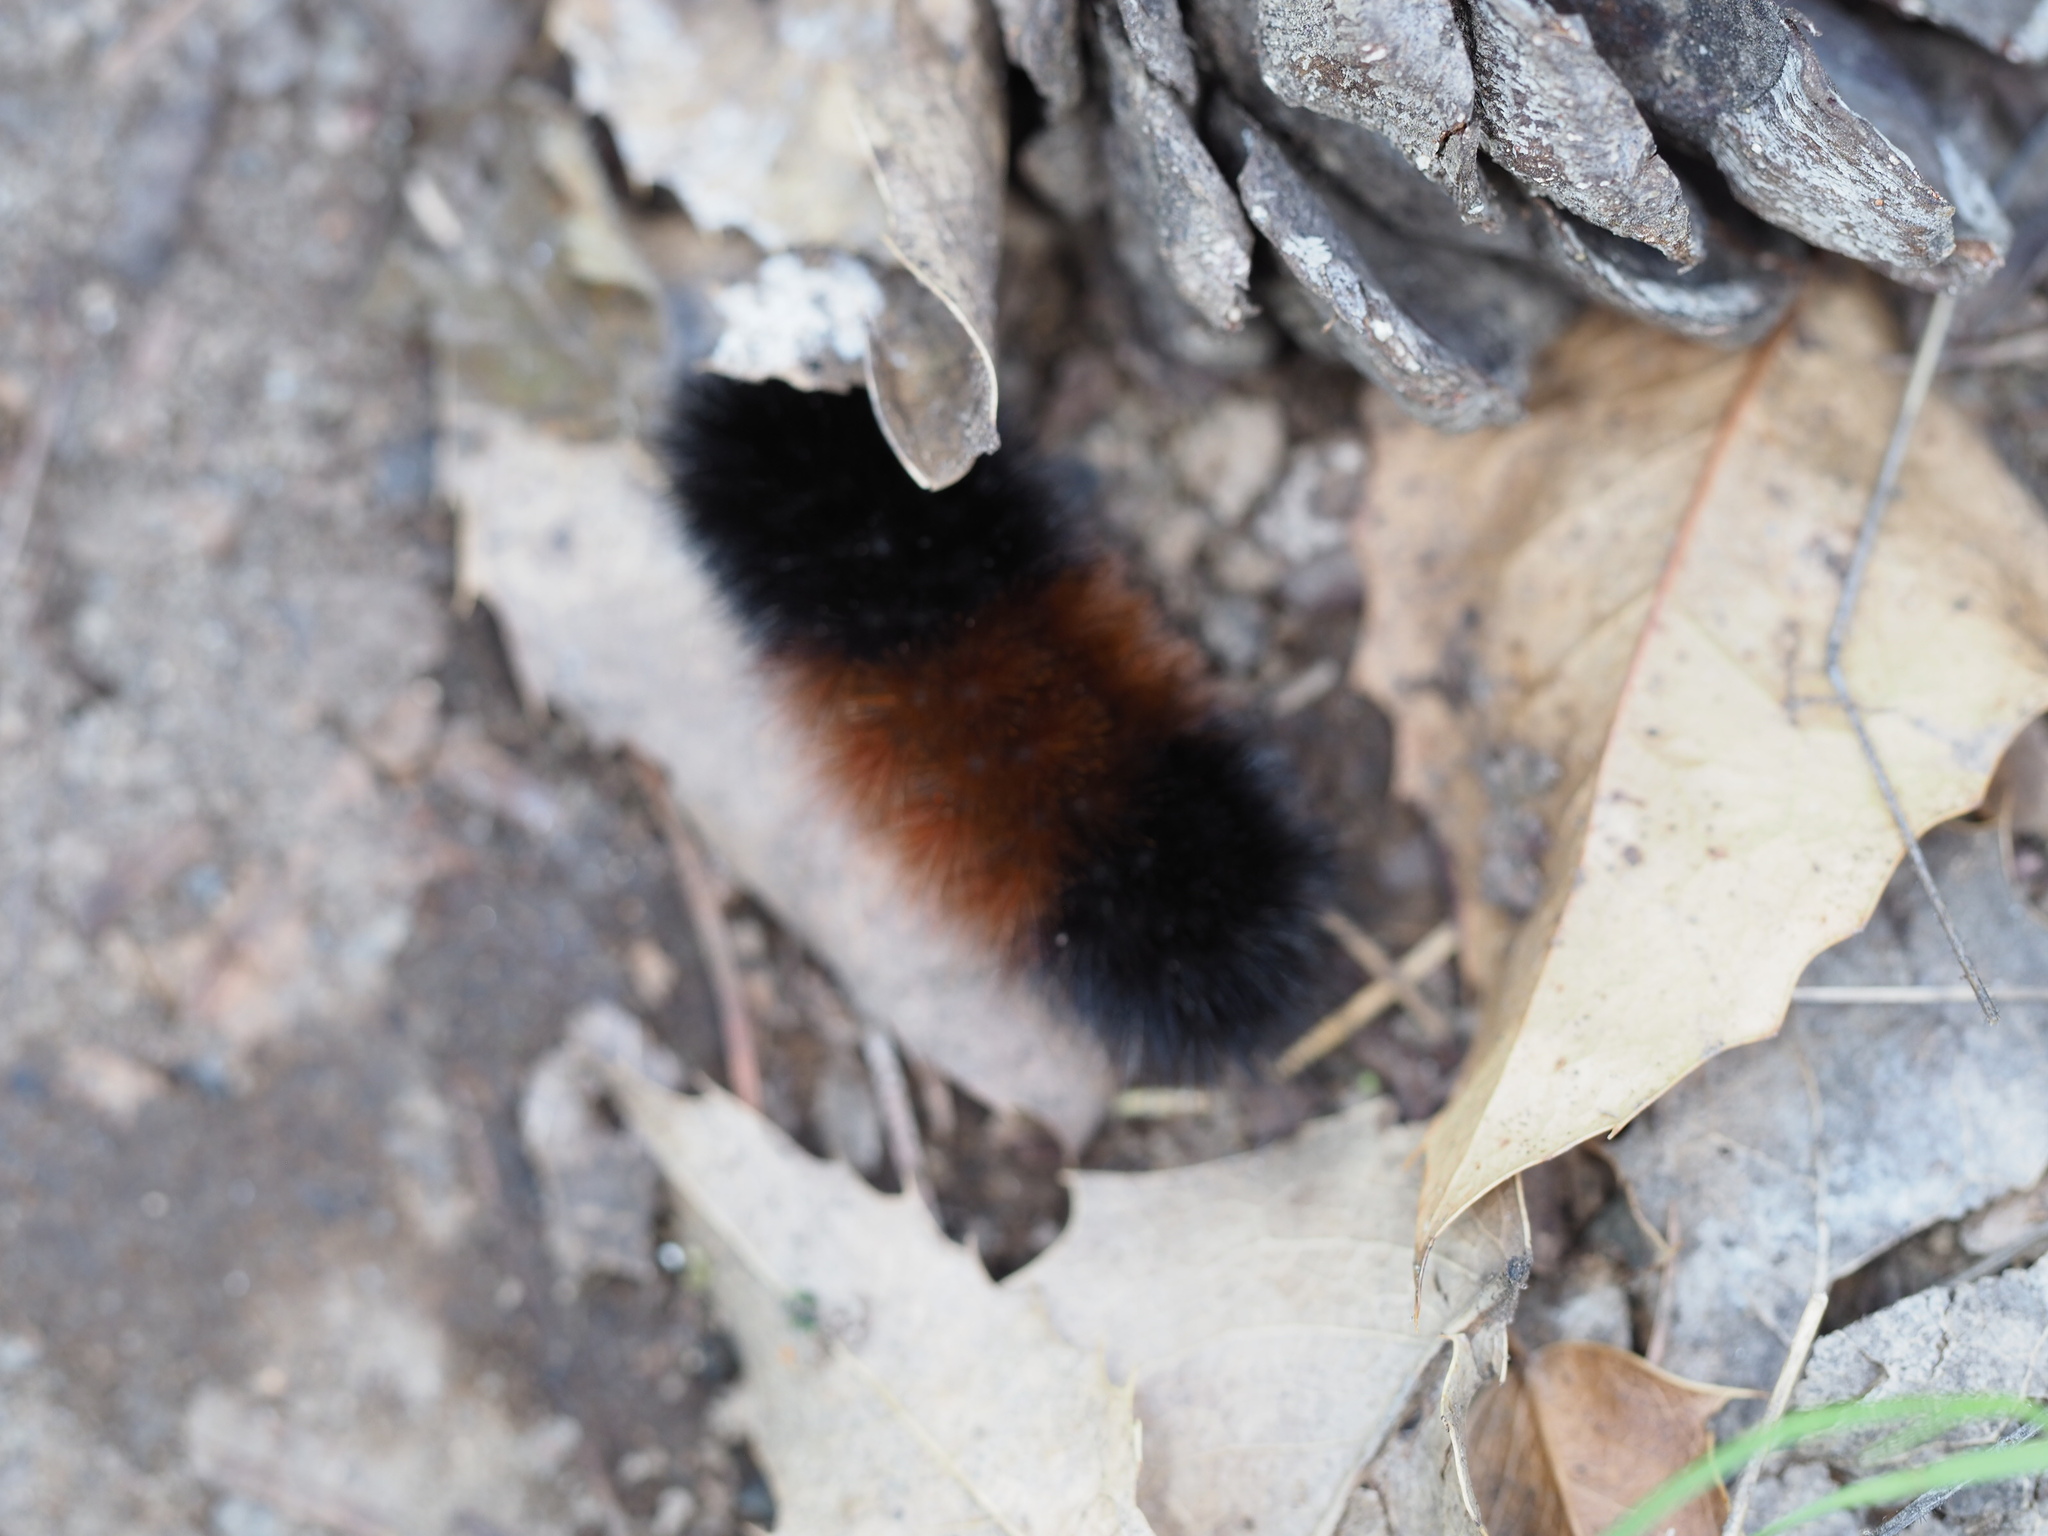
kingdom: Animalia
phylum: Arthropoda
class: Insecta
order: Lepidoptera
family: Erebidae
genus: Pyrrharctia
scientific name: Pyrrharctia isabella
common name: Isabella tiger moth
